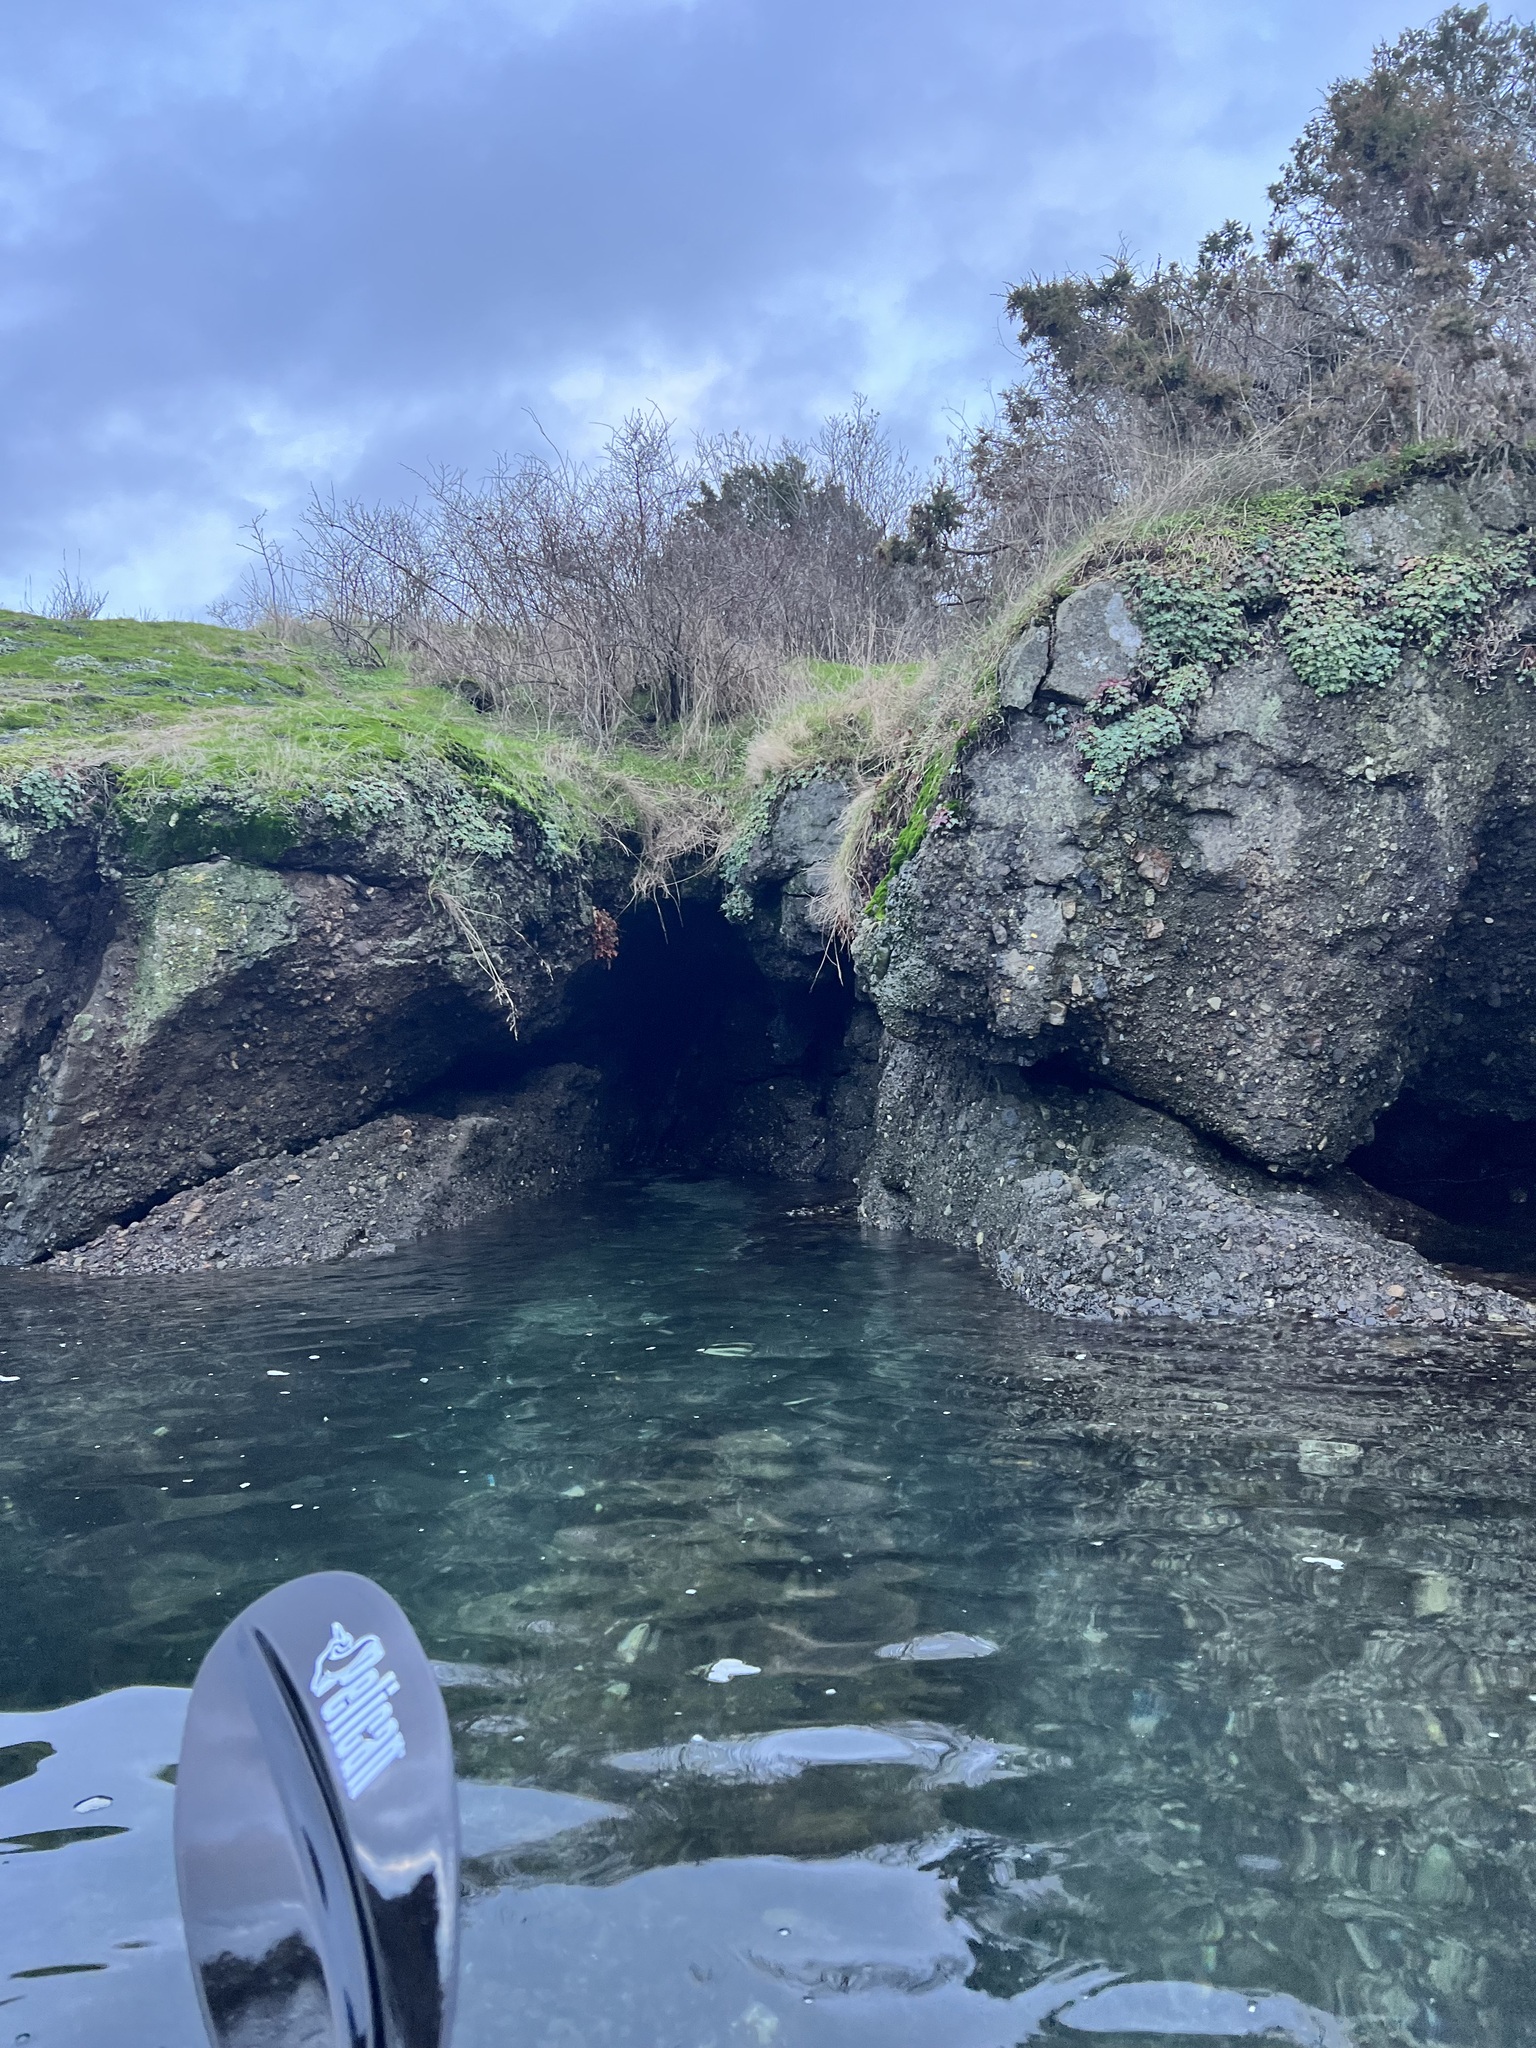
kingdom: Plantae
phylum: Tracheophyta
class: Magnoliopsida
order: Saxifragales
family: Crassulaceae
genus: Sedum
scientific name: Sedum spathulifolium
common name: Colorado stonecrop
